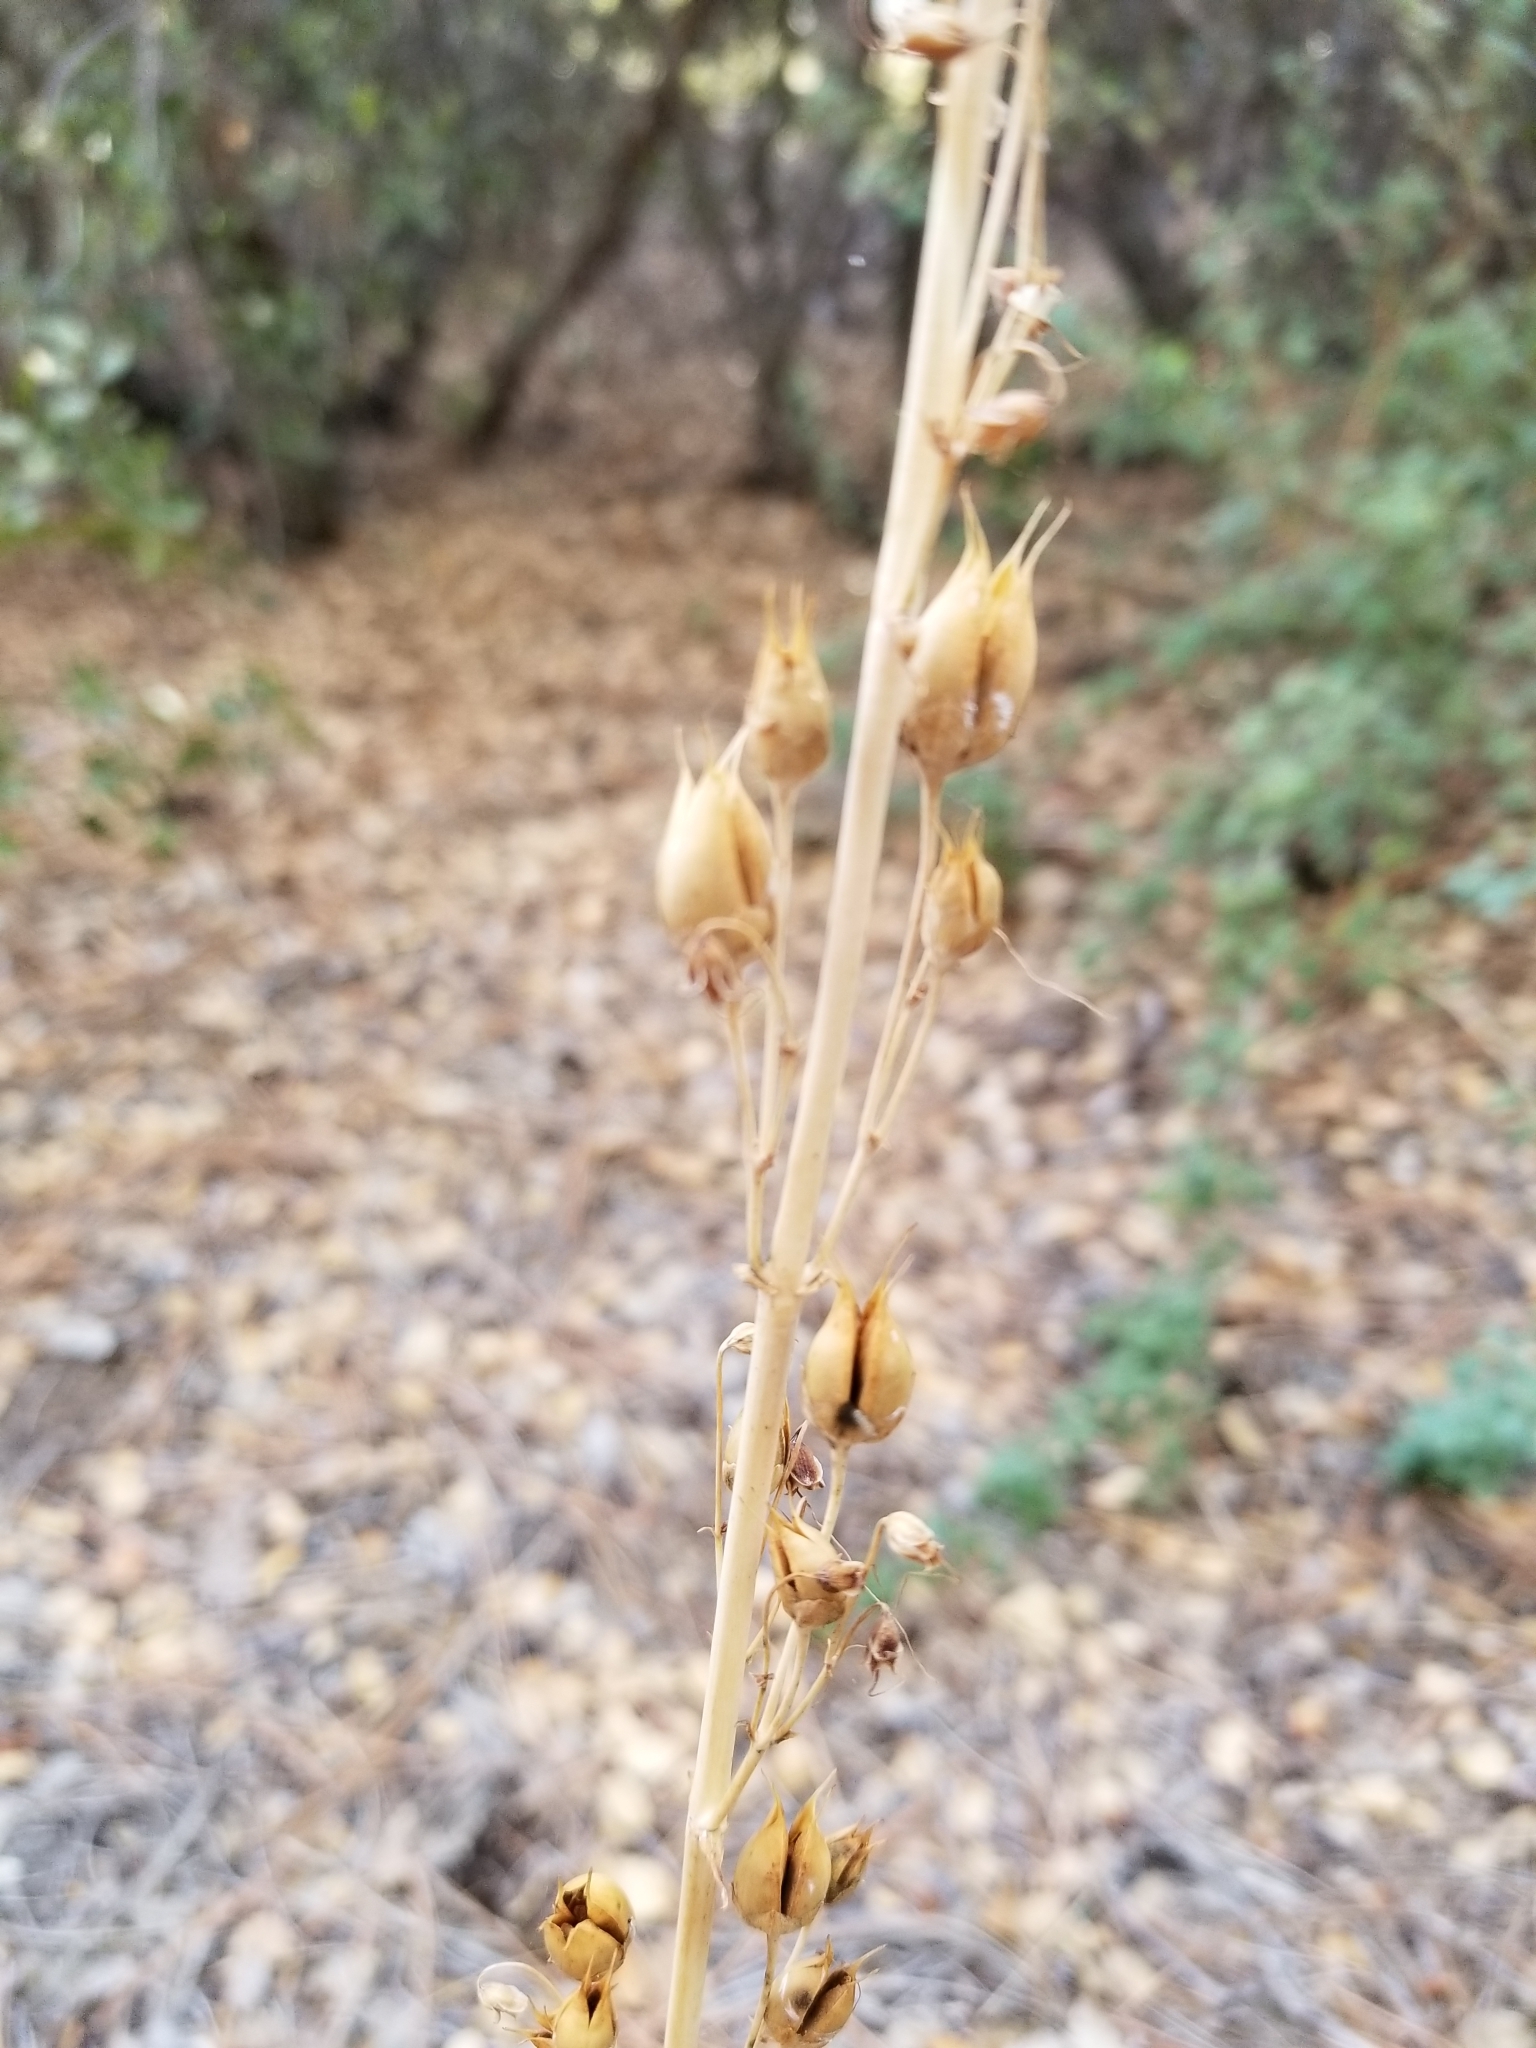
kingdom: Plantae
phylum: Tracheophyta
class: Magnoliopsida
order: Lamiales
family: Plantaginaceae
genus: Penstemon
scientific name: Penstemon centranthifolius
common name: Scarlet bugler
